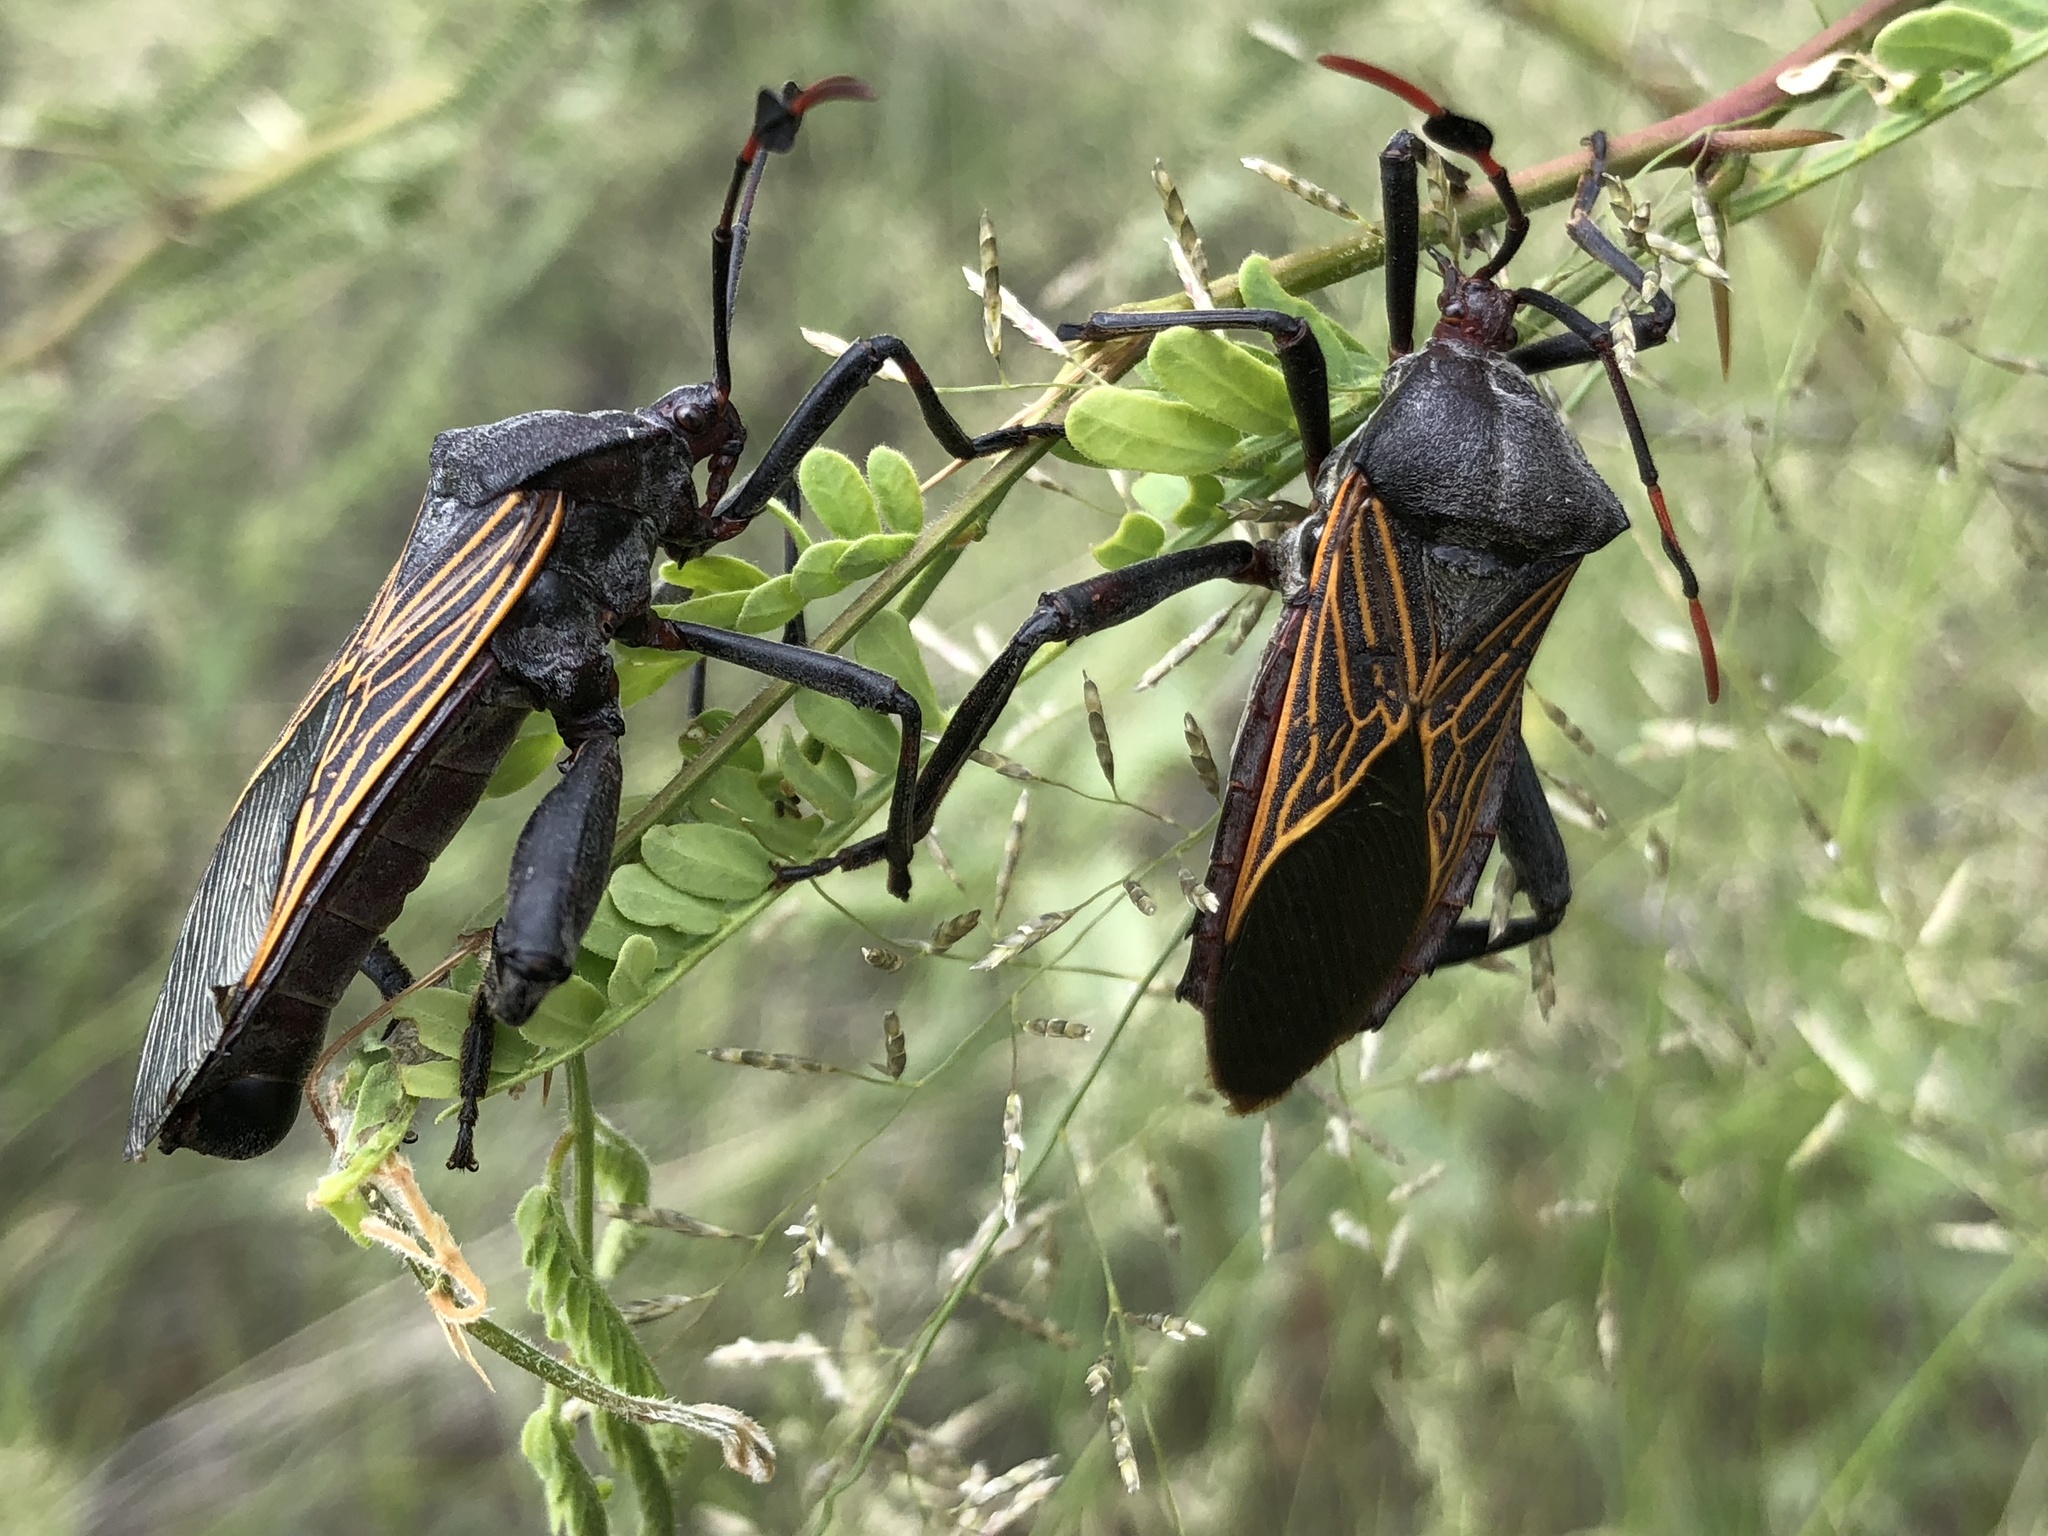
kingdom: Animalia
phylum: Arthropoda
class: Insecta
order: Hemiptera
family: Coreidae
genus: Thasus
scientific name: Thasus neocalifornicus
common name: Giant mesquite bug
